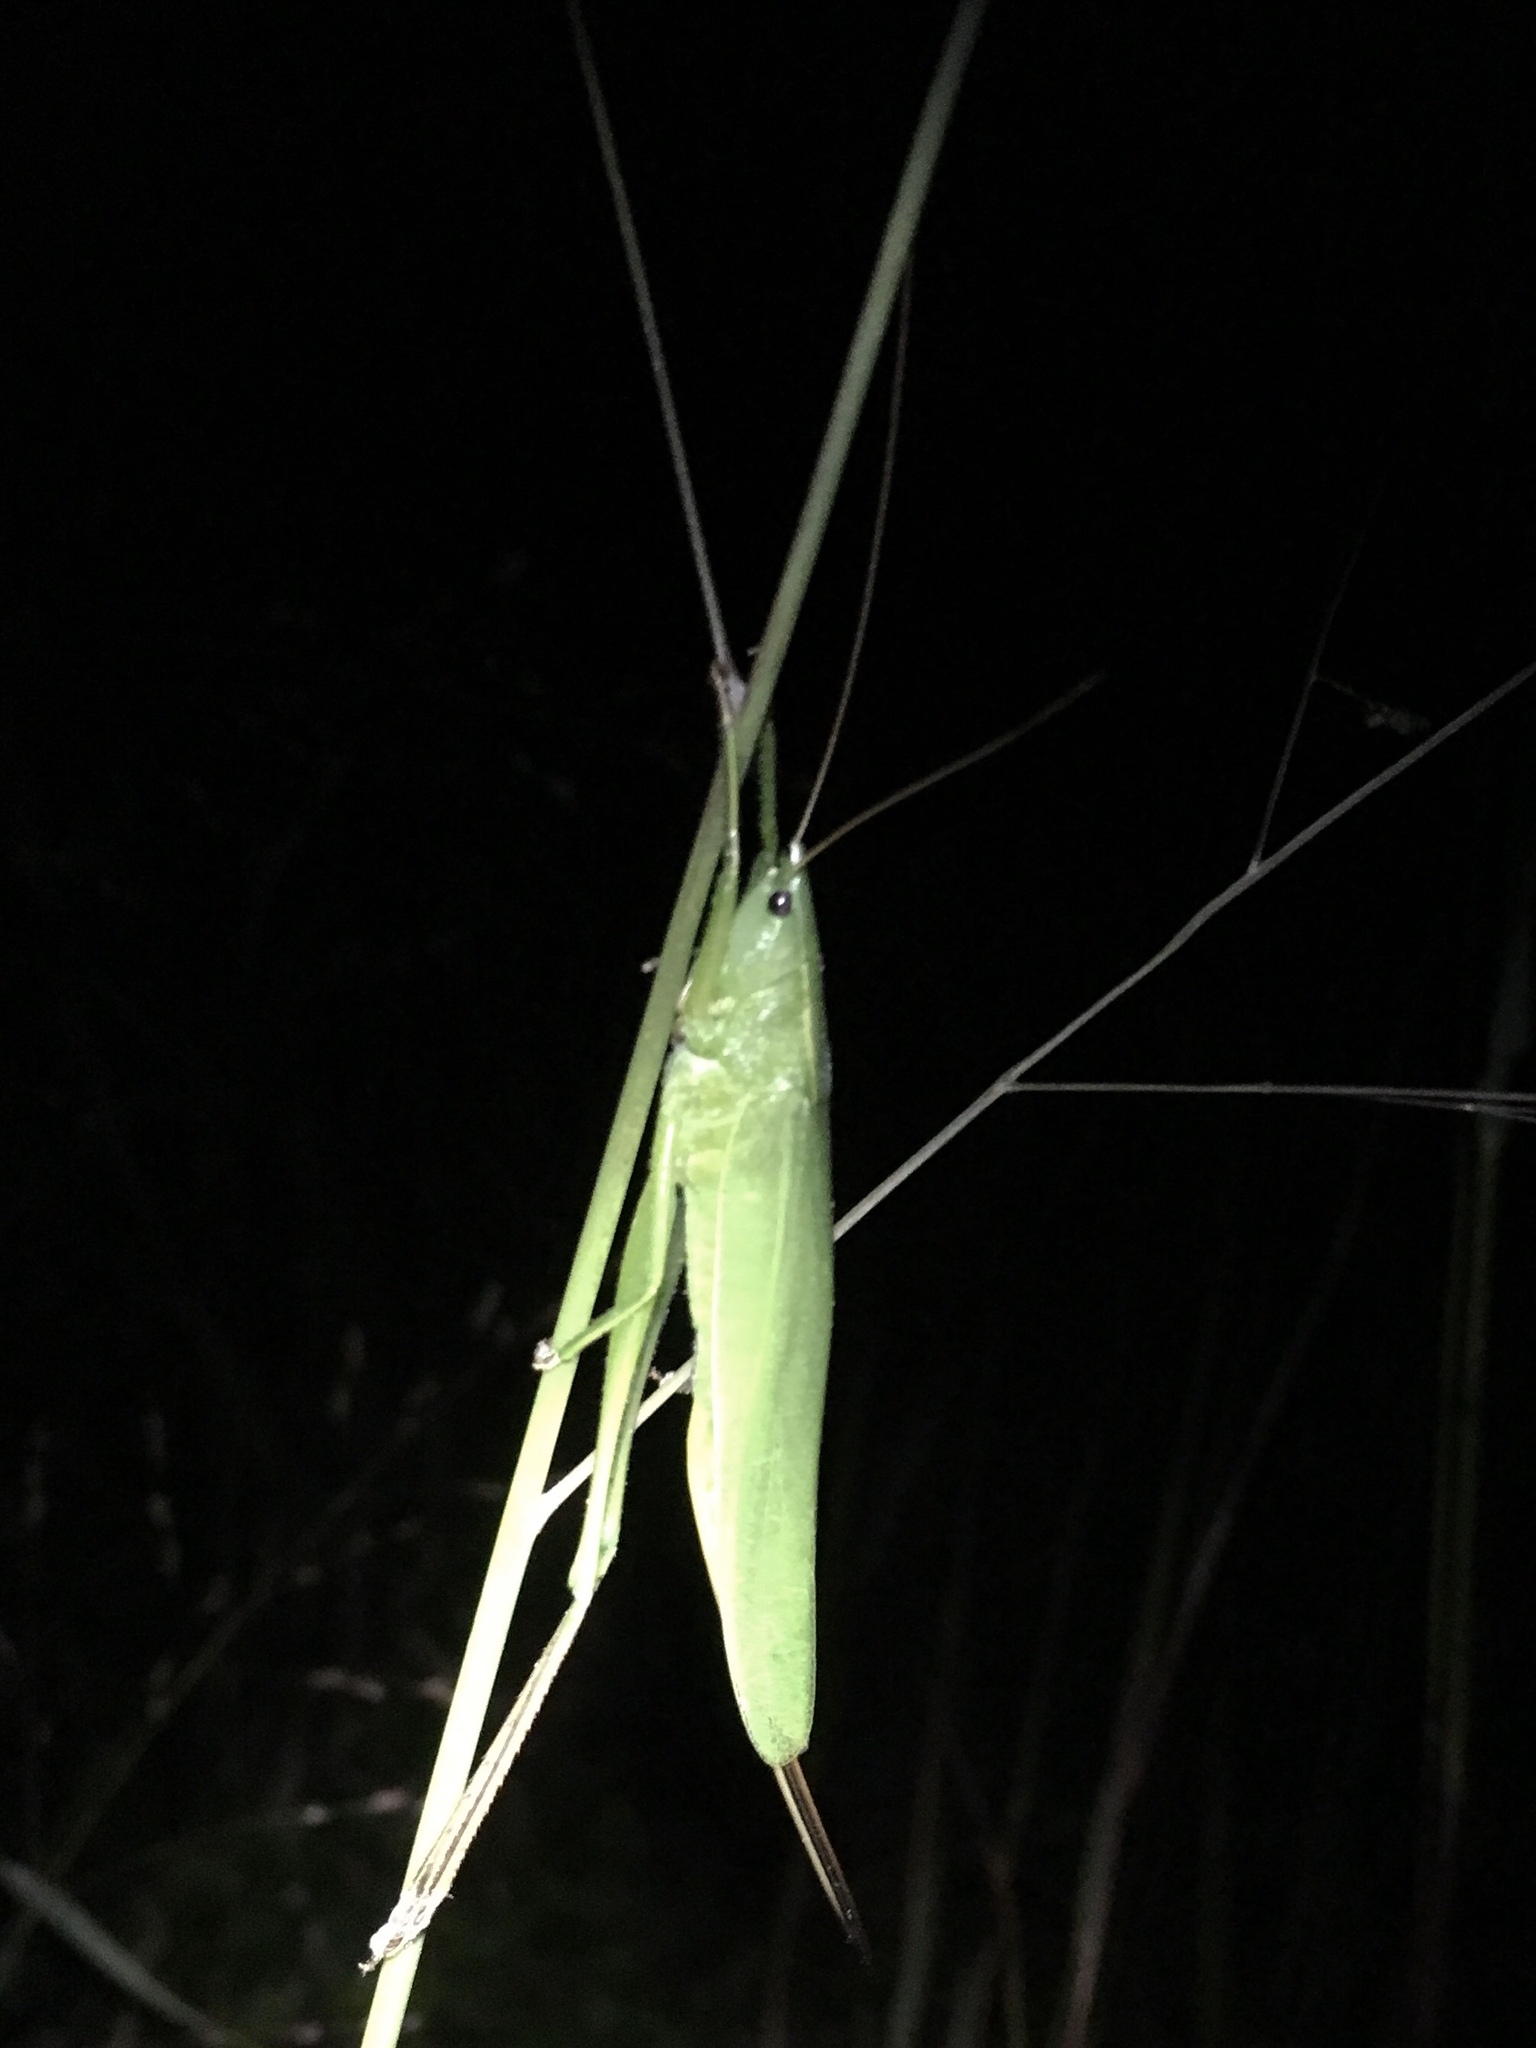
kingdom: Animalia
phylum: Arthropoda
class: Insecta
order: Orthoptera
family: Tettigoniidae
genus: Neoconocephalus
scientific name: Neoconocephalus retusus
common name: Round-tipped conehead
